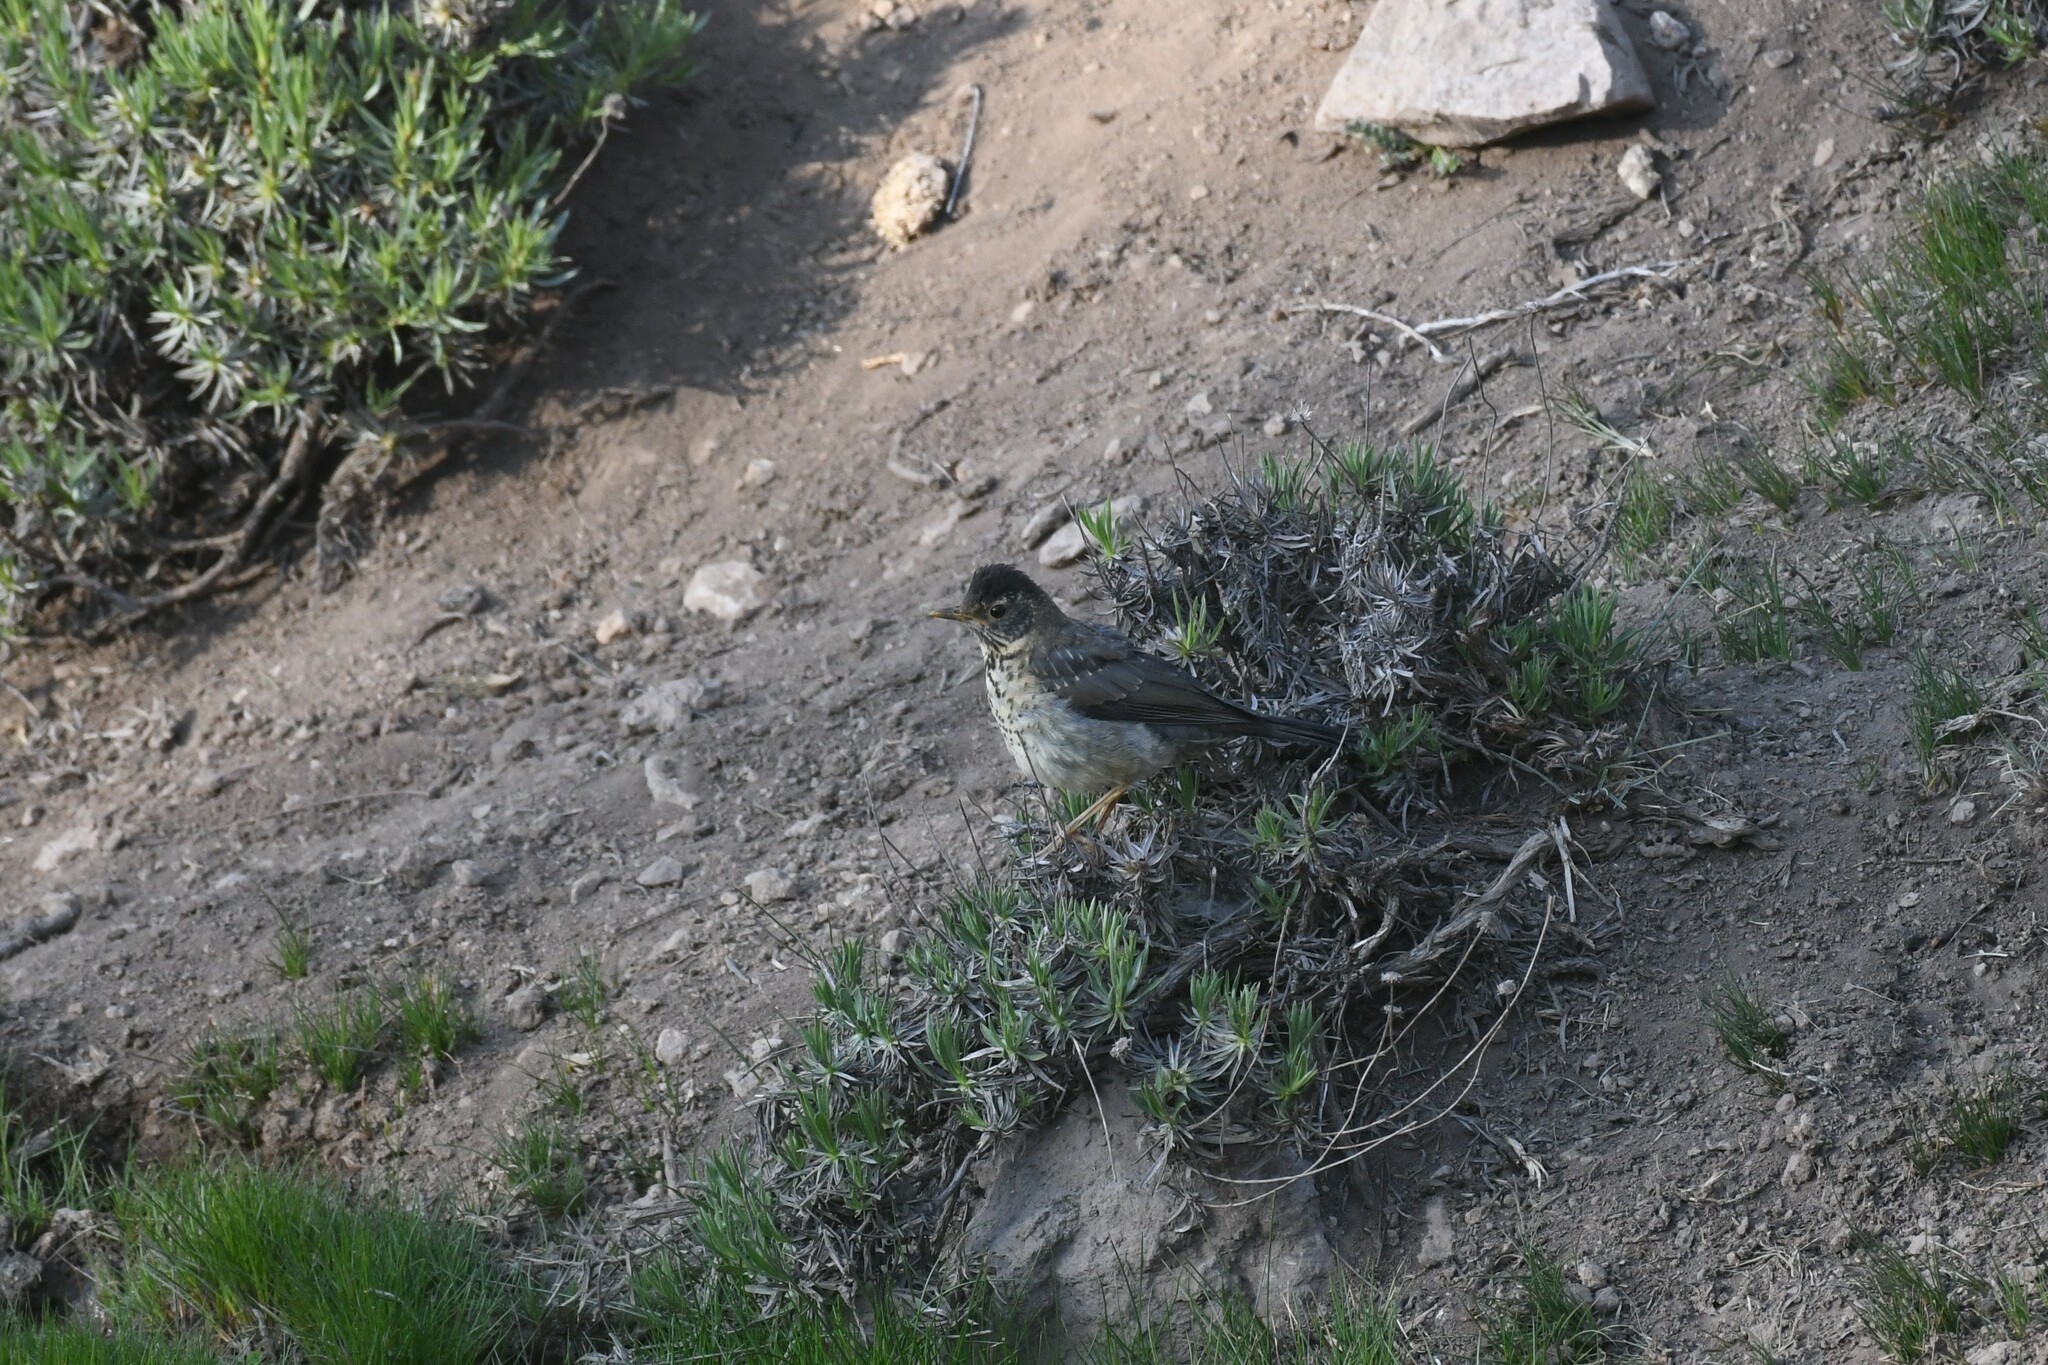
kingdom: Animalia
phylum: Chordata
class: Aves
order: Passeriformes
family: Turdidae
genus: Turdus
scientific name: Turdus falcklandii
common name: Austral thrush
